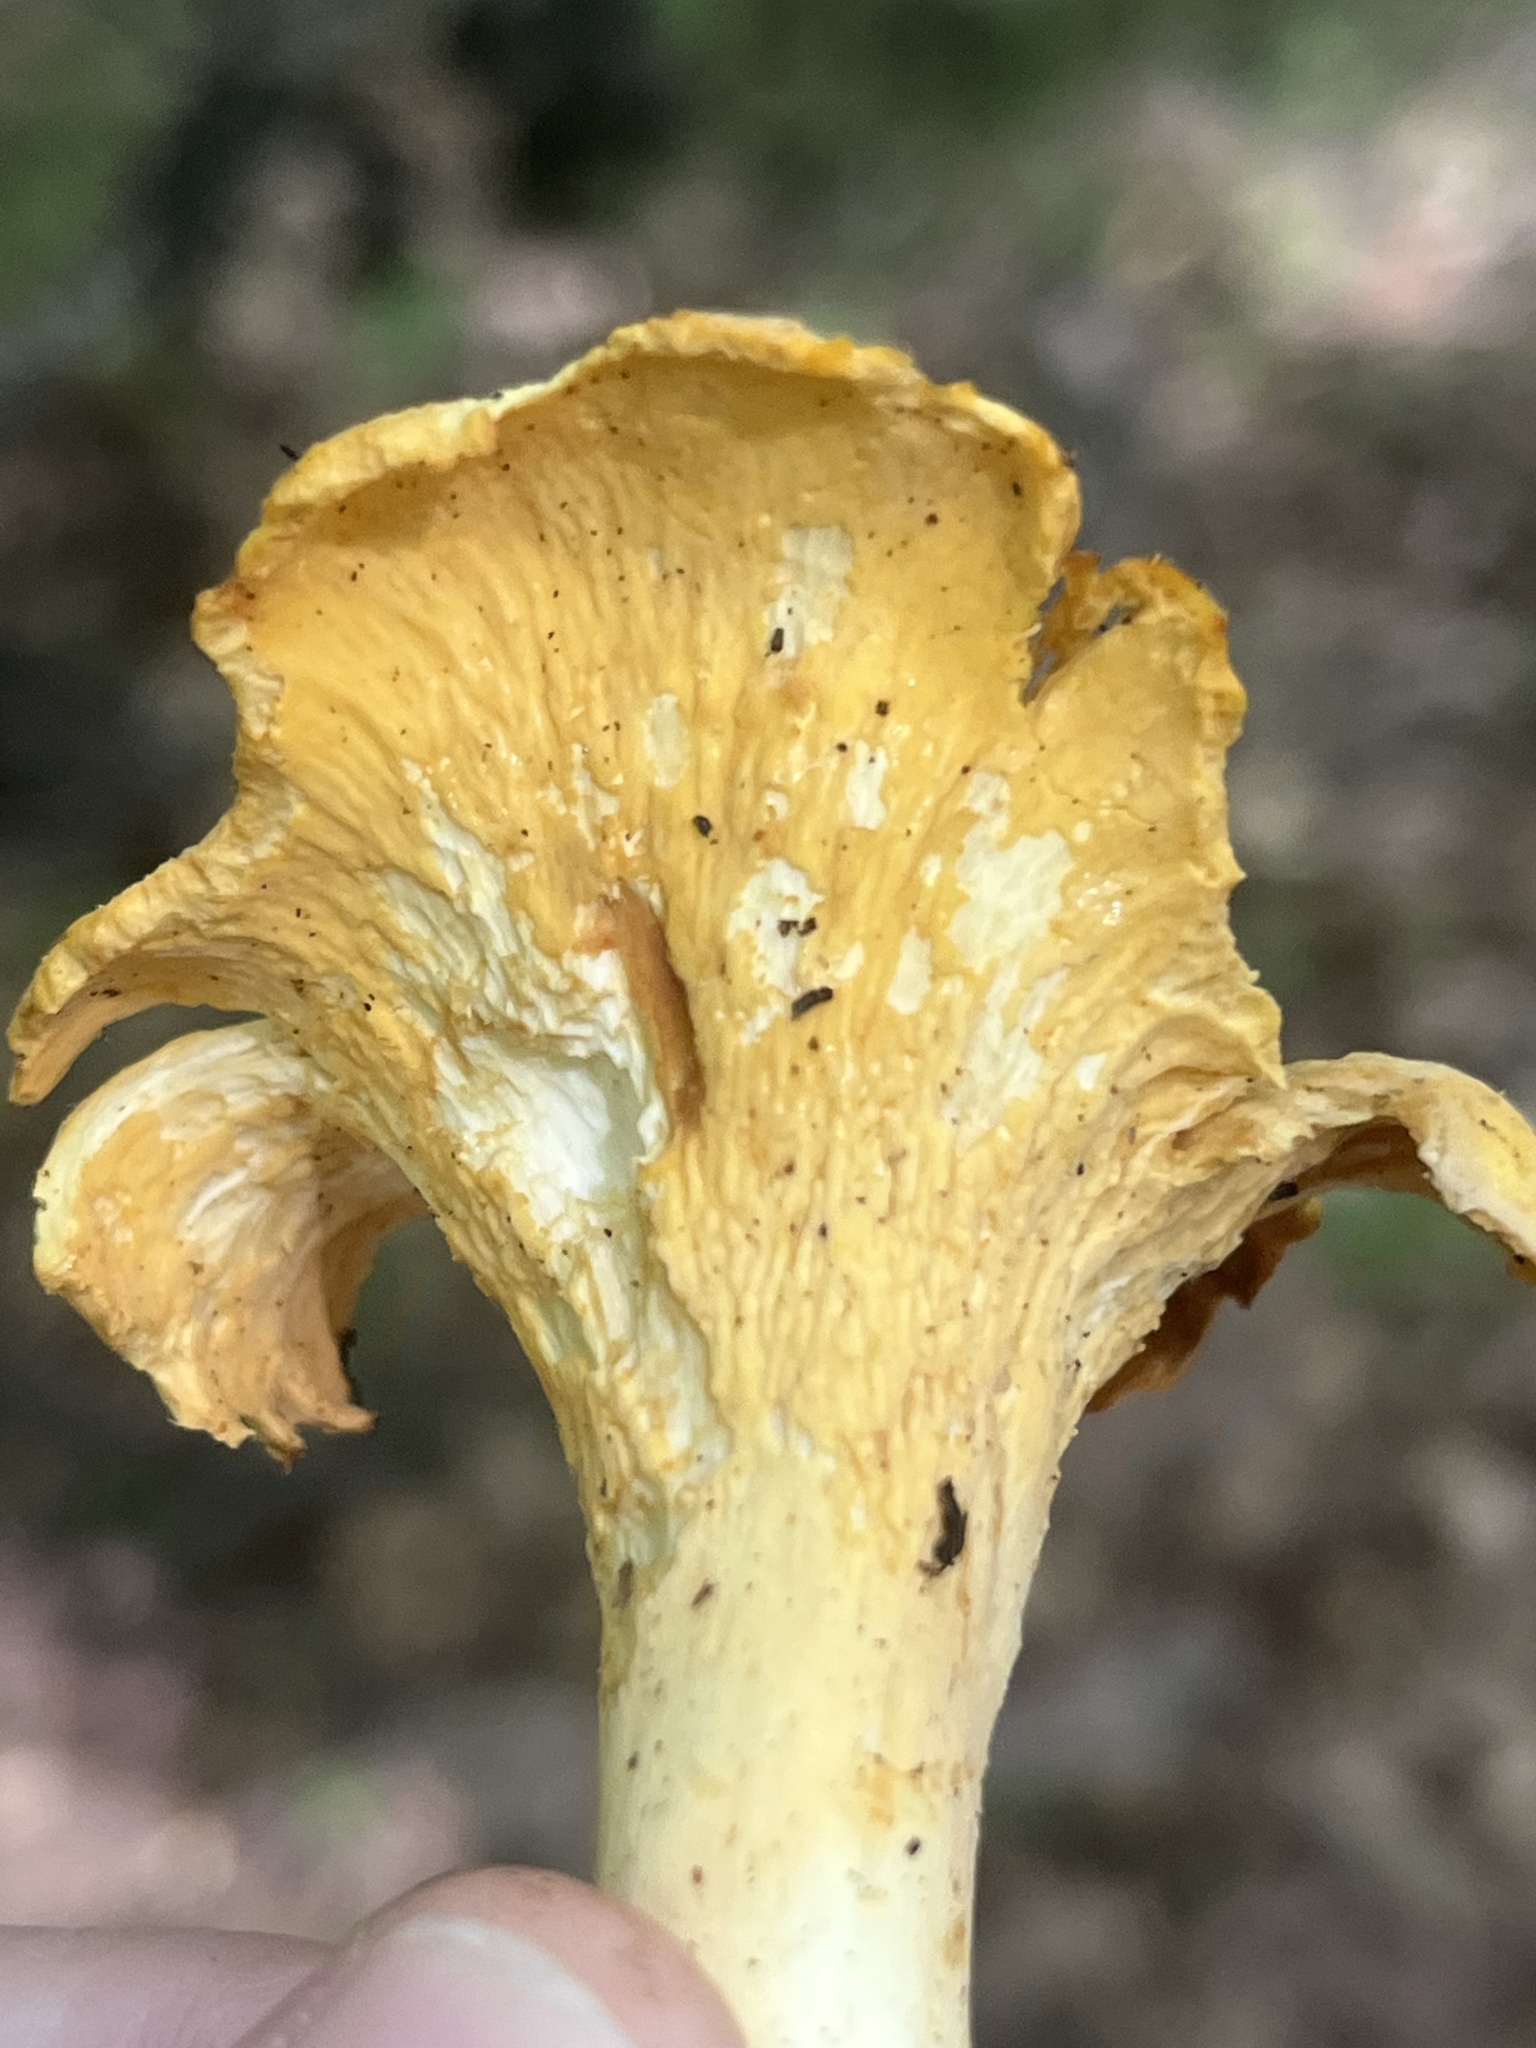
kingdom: Fungi
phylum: Basidiomycota
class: Agaricomycetes
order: Cantharellales
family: Hydnaceae
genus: Cantharellus
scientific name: Cantharellus lateritius
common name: Smooth chanterelle
